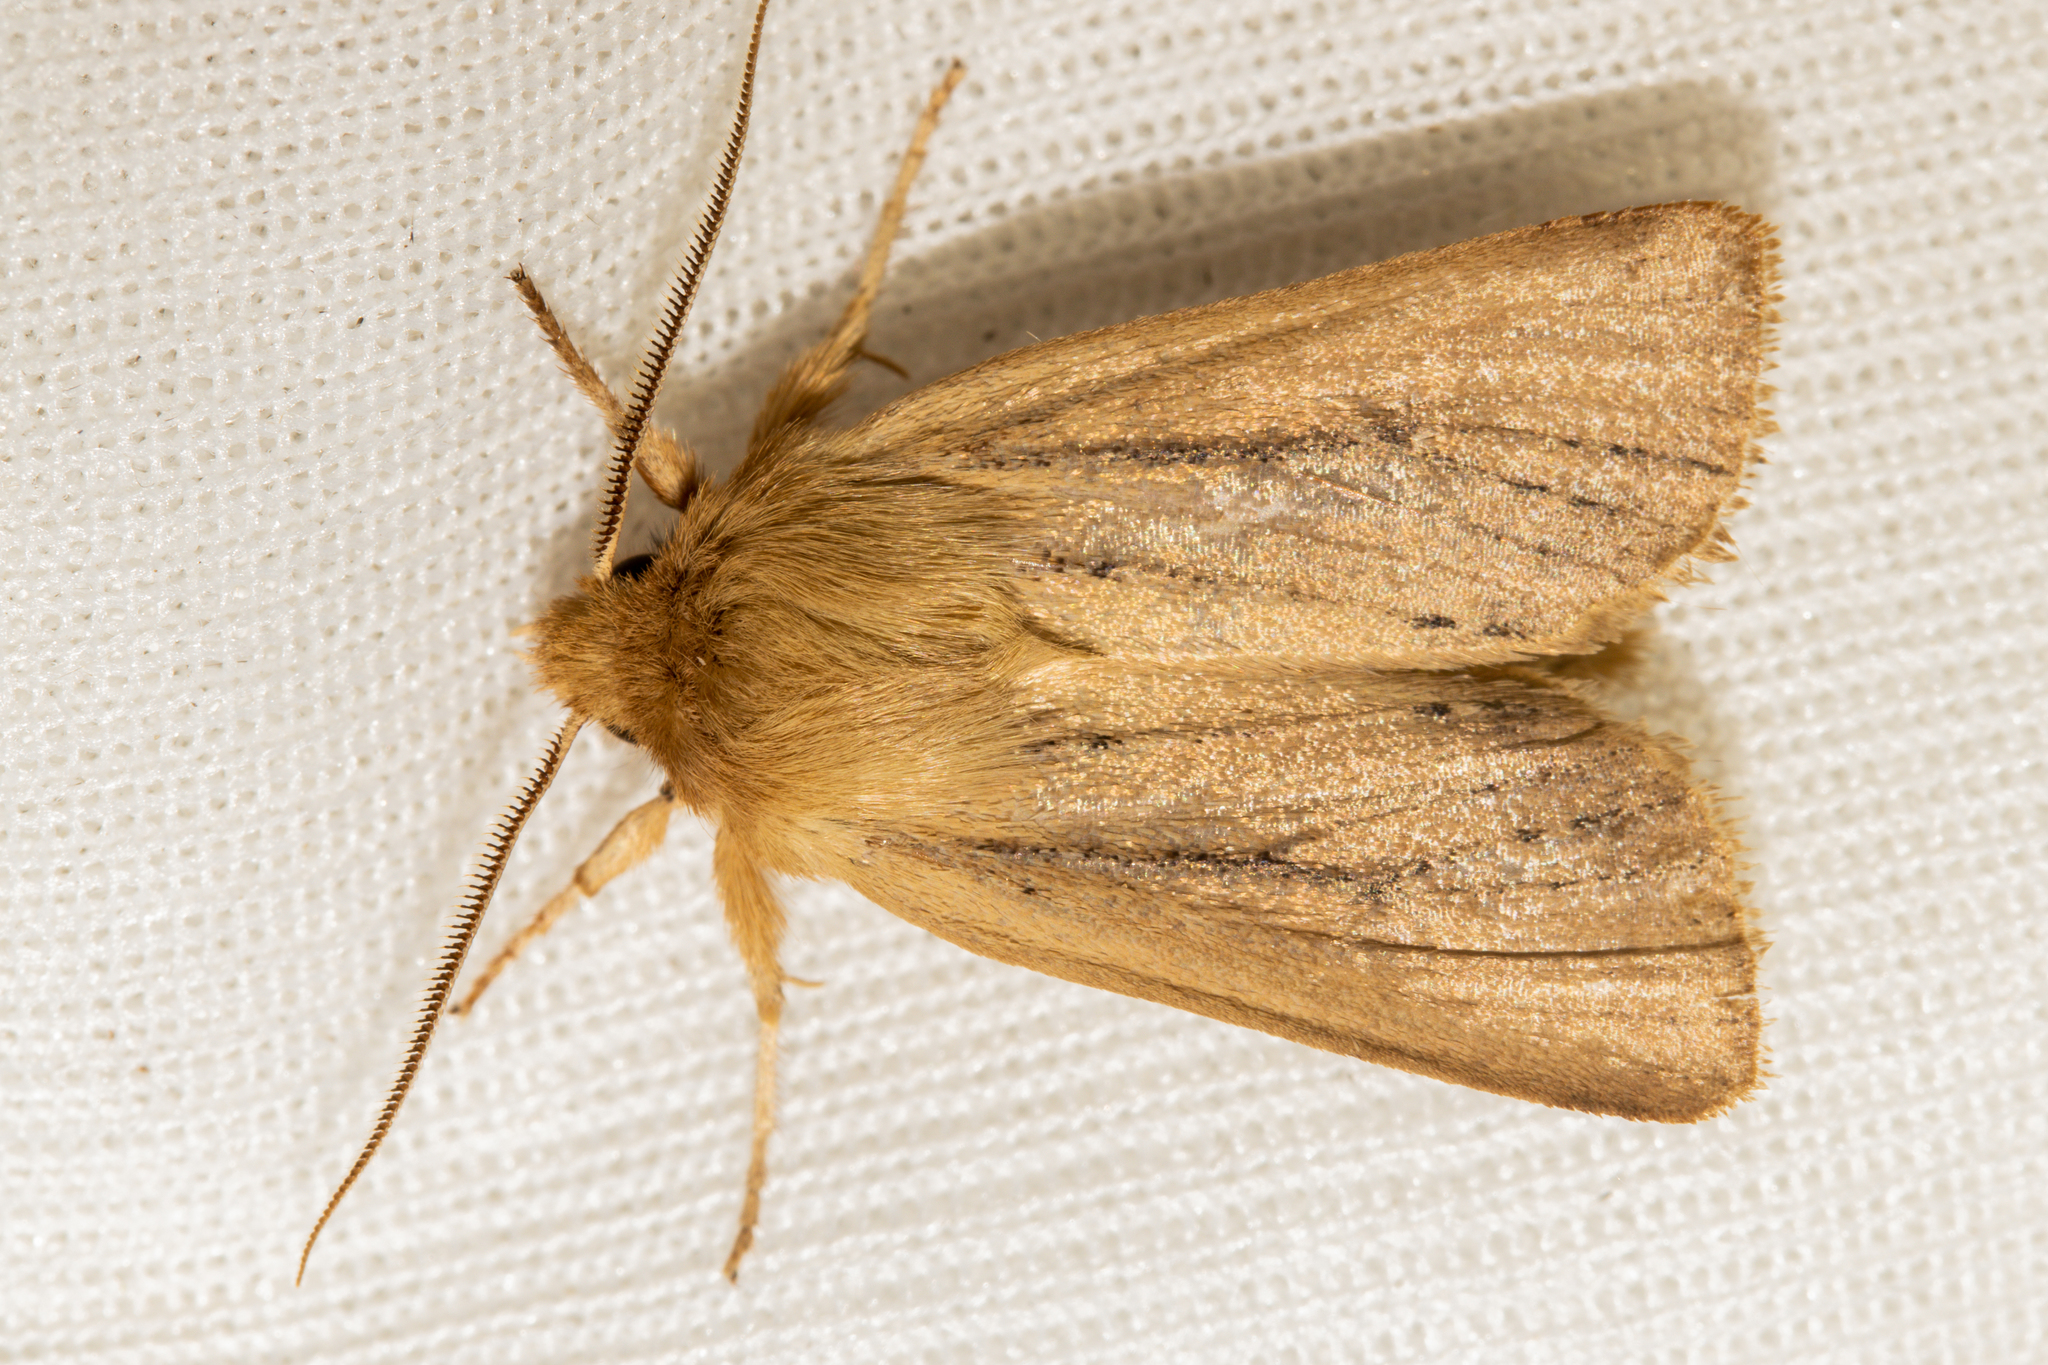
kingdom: Animalia
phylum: Arthropoda
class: Insecta
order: Lepidoptera
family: Noctuidae
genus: Ichneutica
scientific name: Ichneutica
